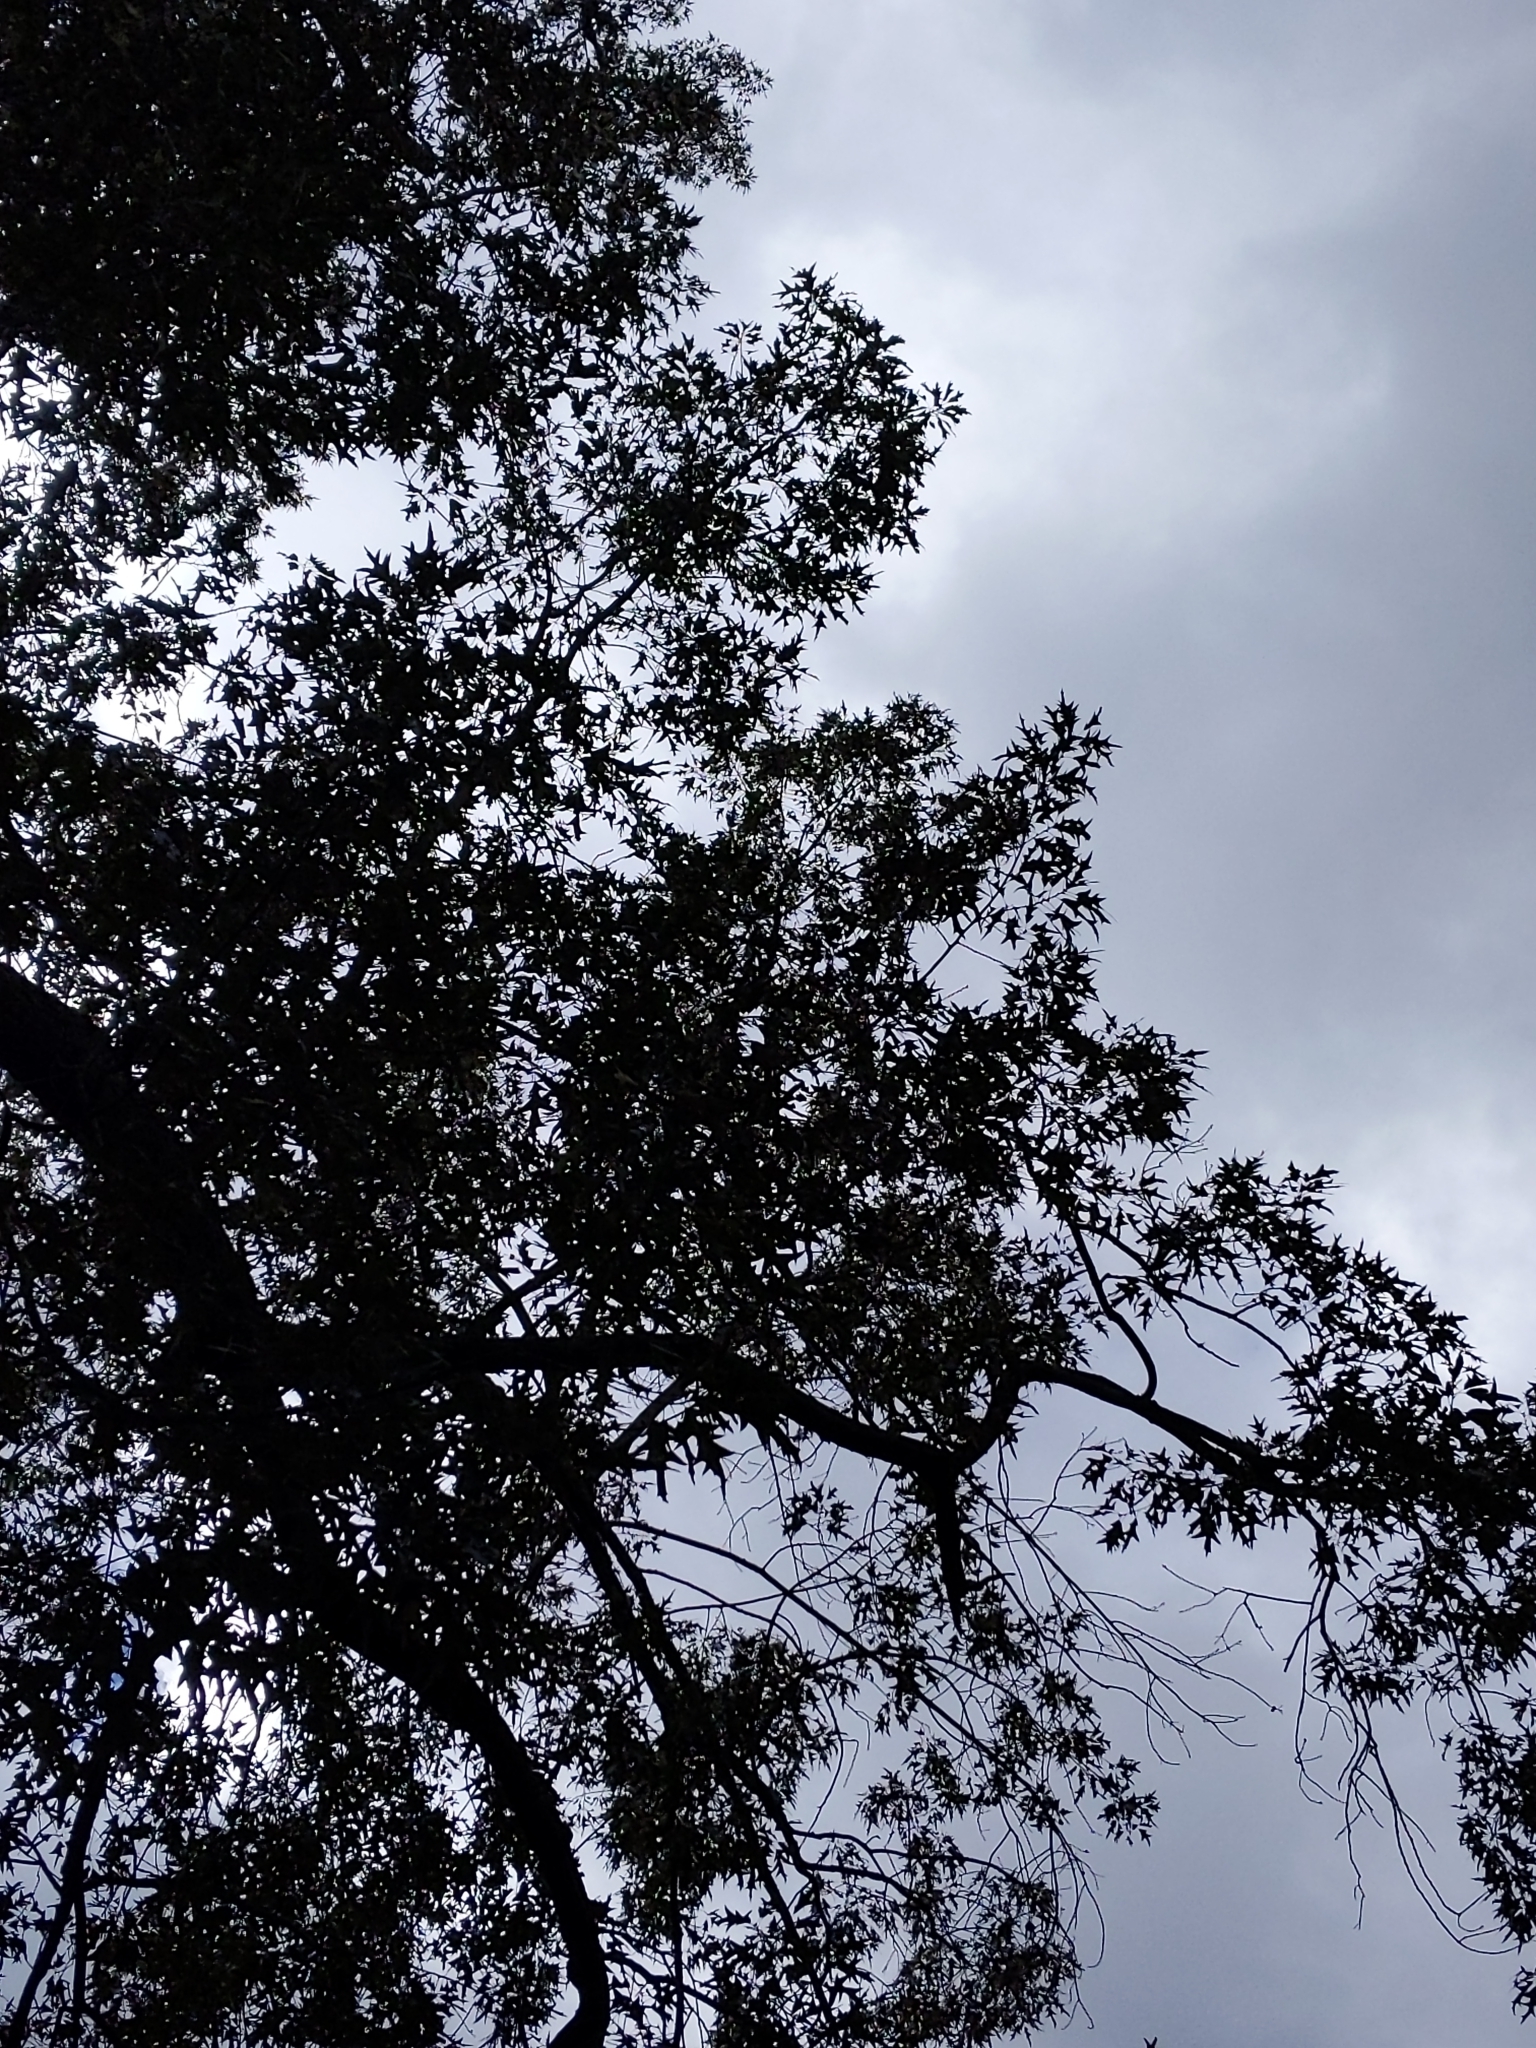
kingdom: Plantae
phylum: Tracheophyta
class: Magnoliopsida
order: Fagales
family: Fagaceae
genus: Quercus
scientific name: Quercus falcata
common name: Southern red oak
